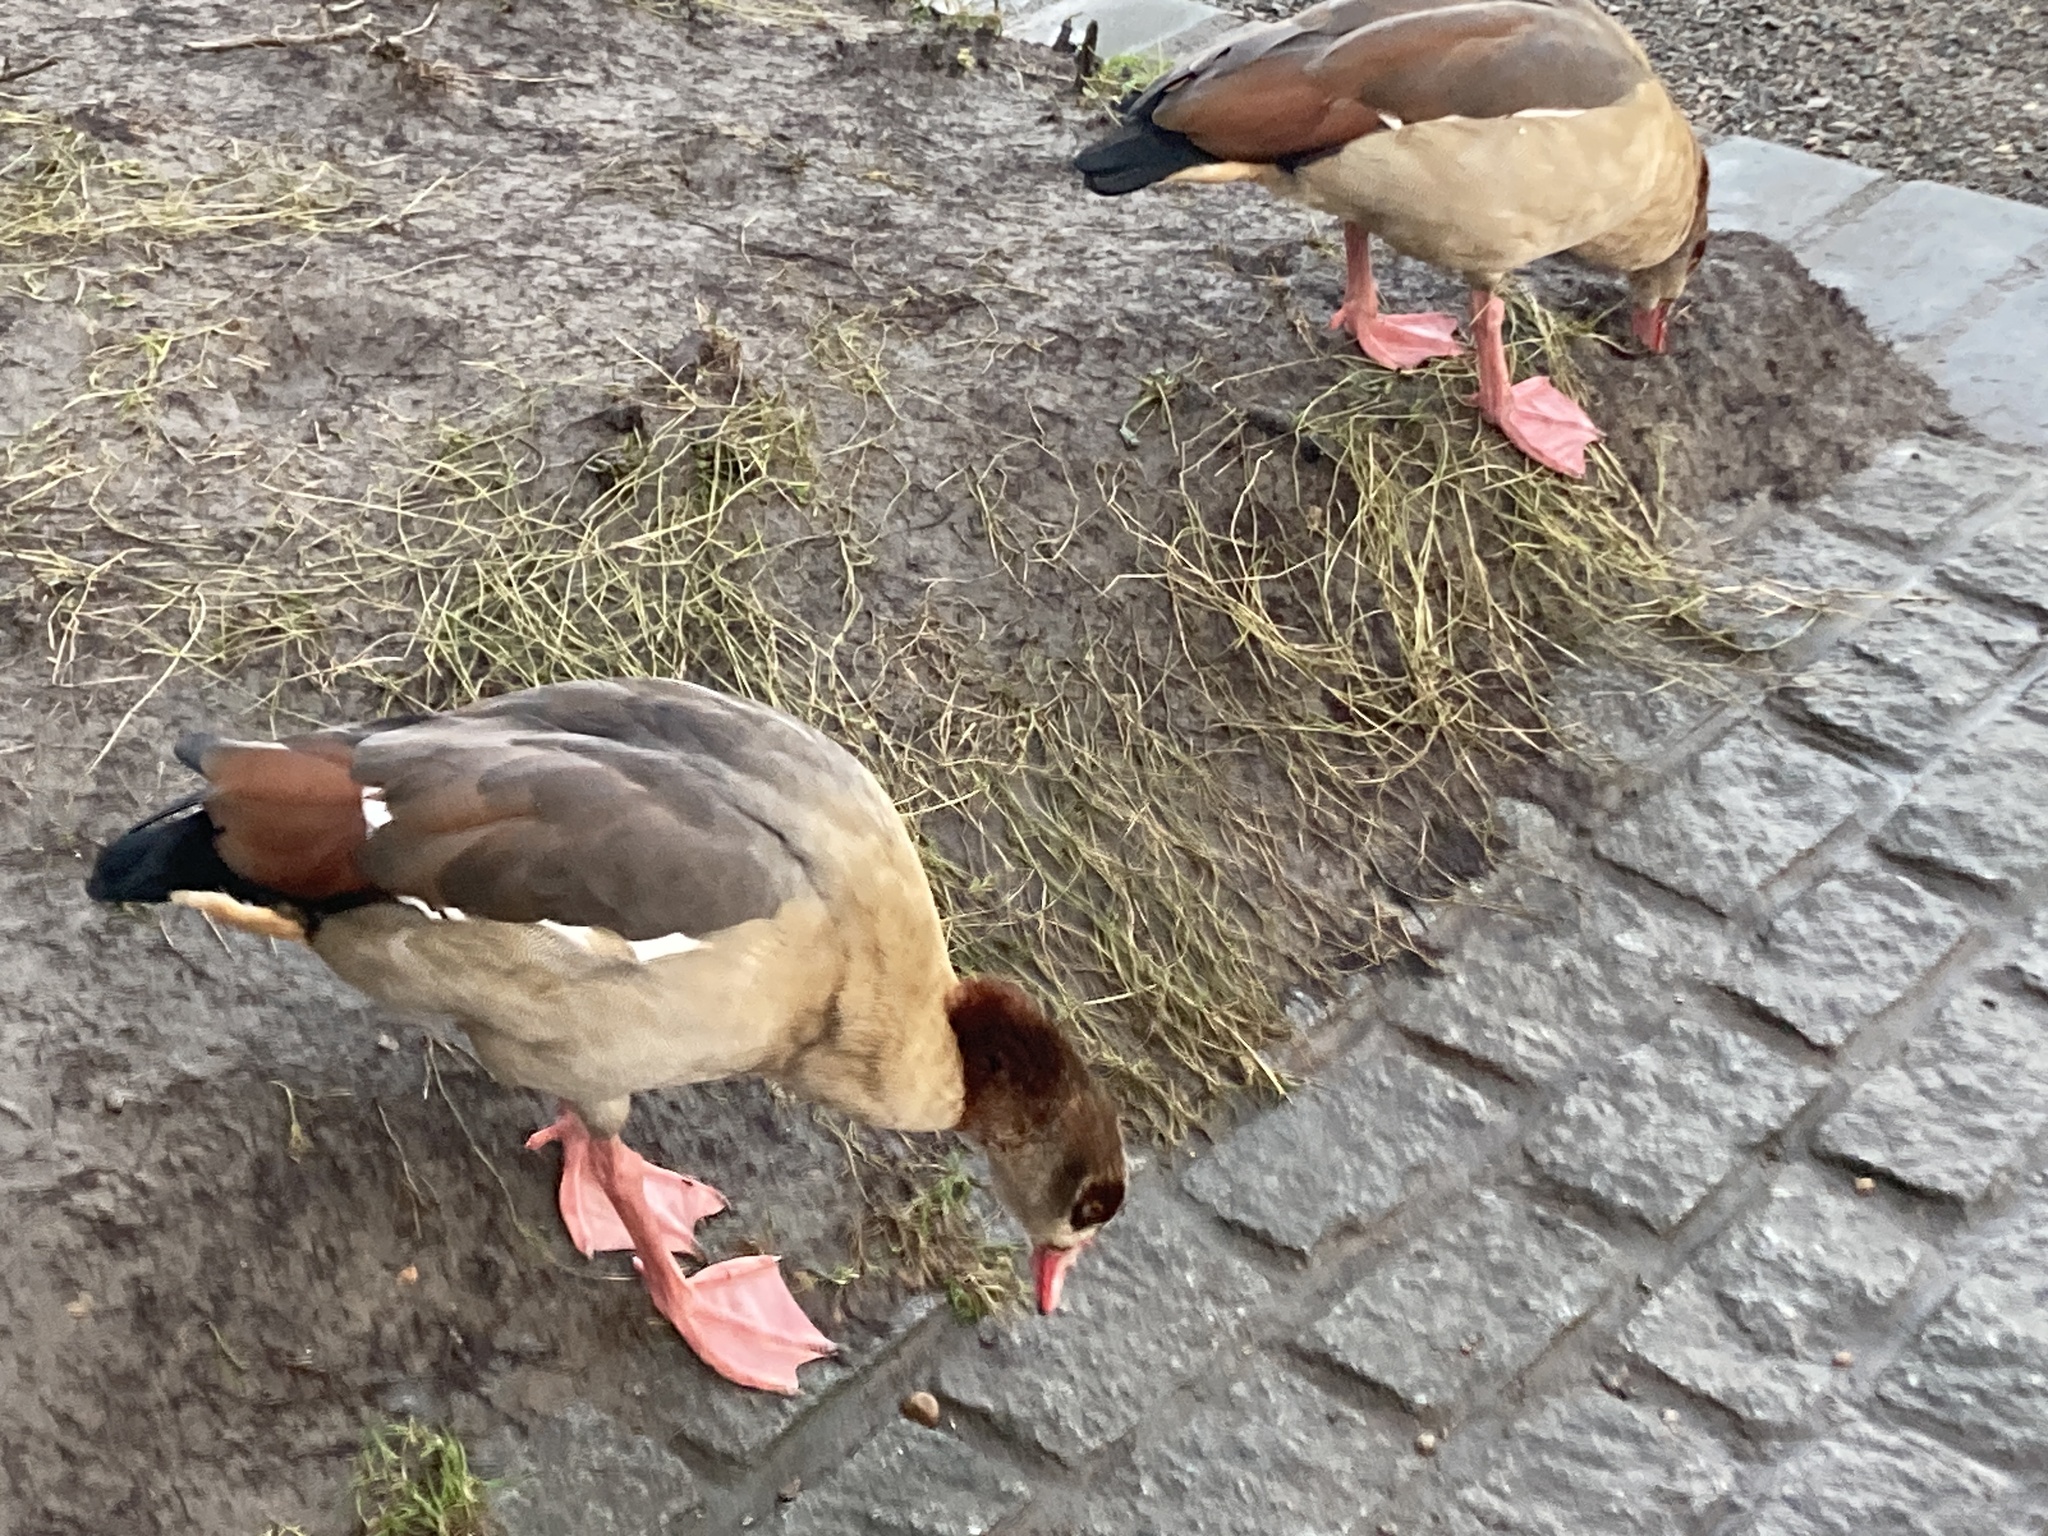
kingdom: Animalia
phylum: Chordata
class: Aves
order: Anseriformes
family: Anatidae
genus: Alopochen
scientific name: Alopochen aegyptiaca
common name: Egyptian goose
